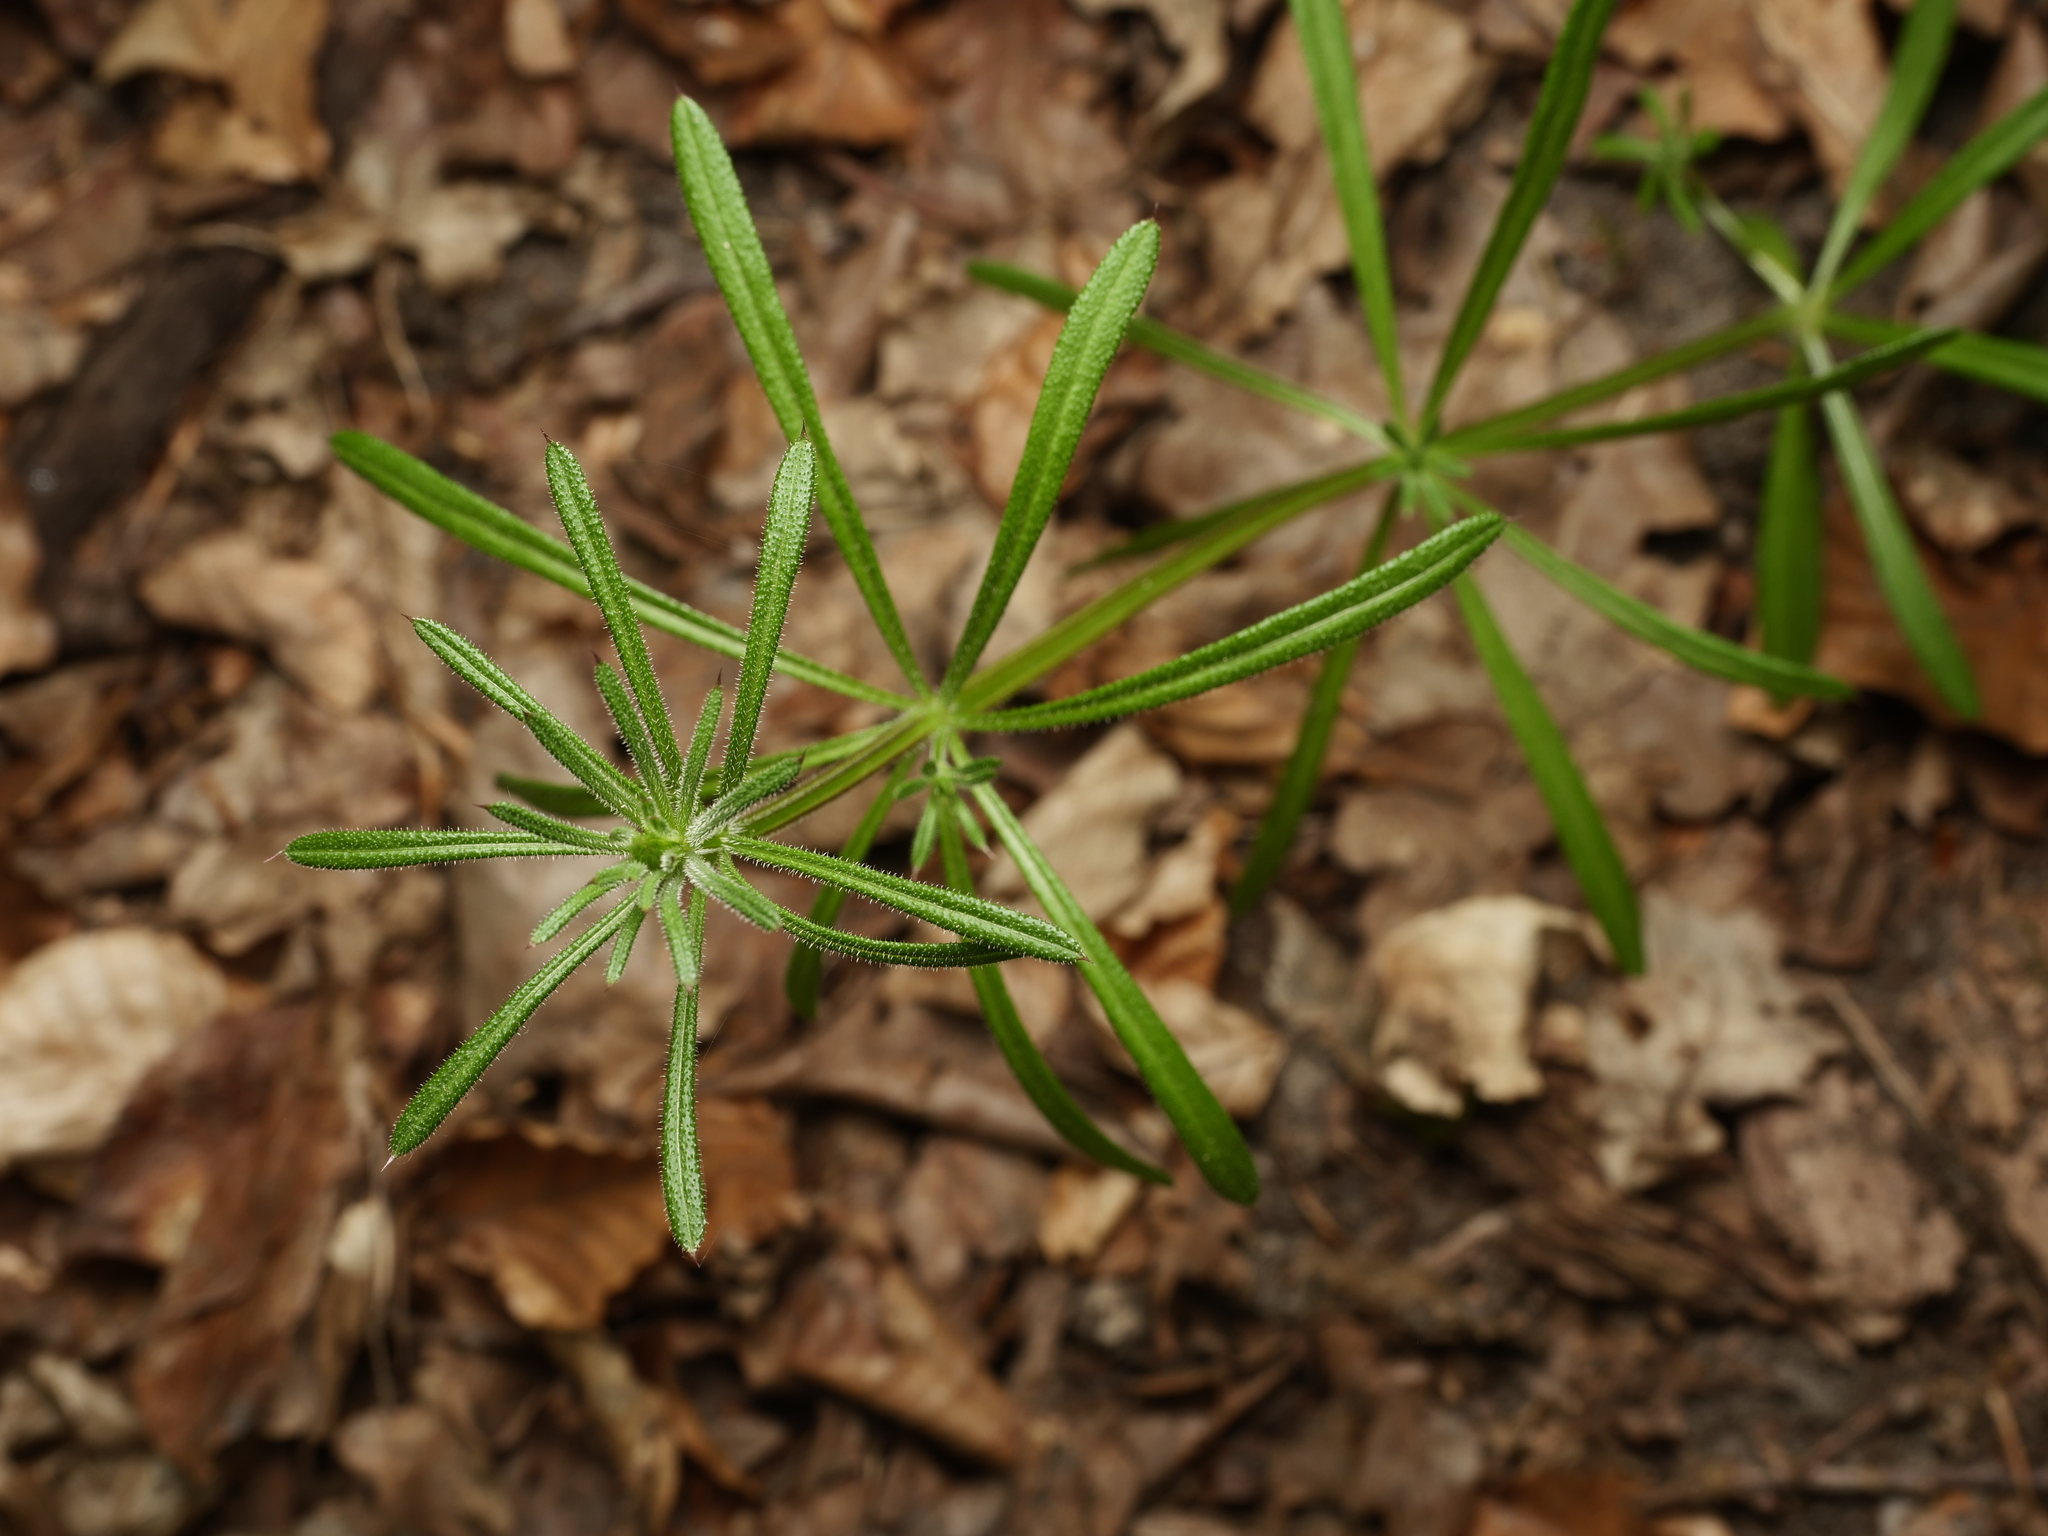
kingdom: Plantae
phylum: Tracheophyta
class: Magnoliopsida
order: Gentianales
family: Rubiaceae
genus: Galium
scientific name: Galium aparine
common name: Cleavers
